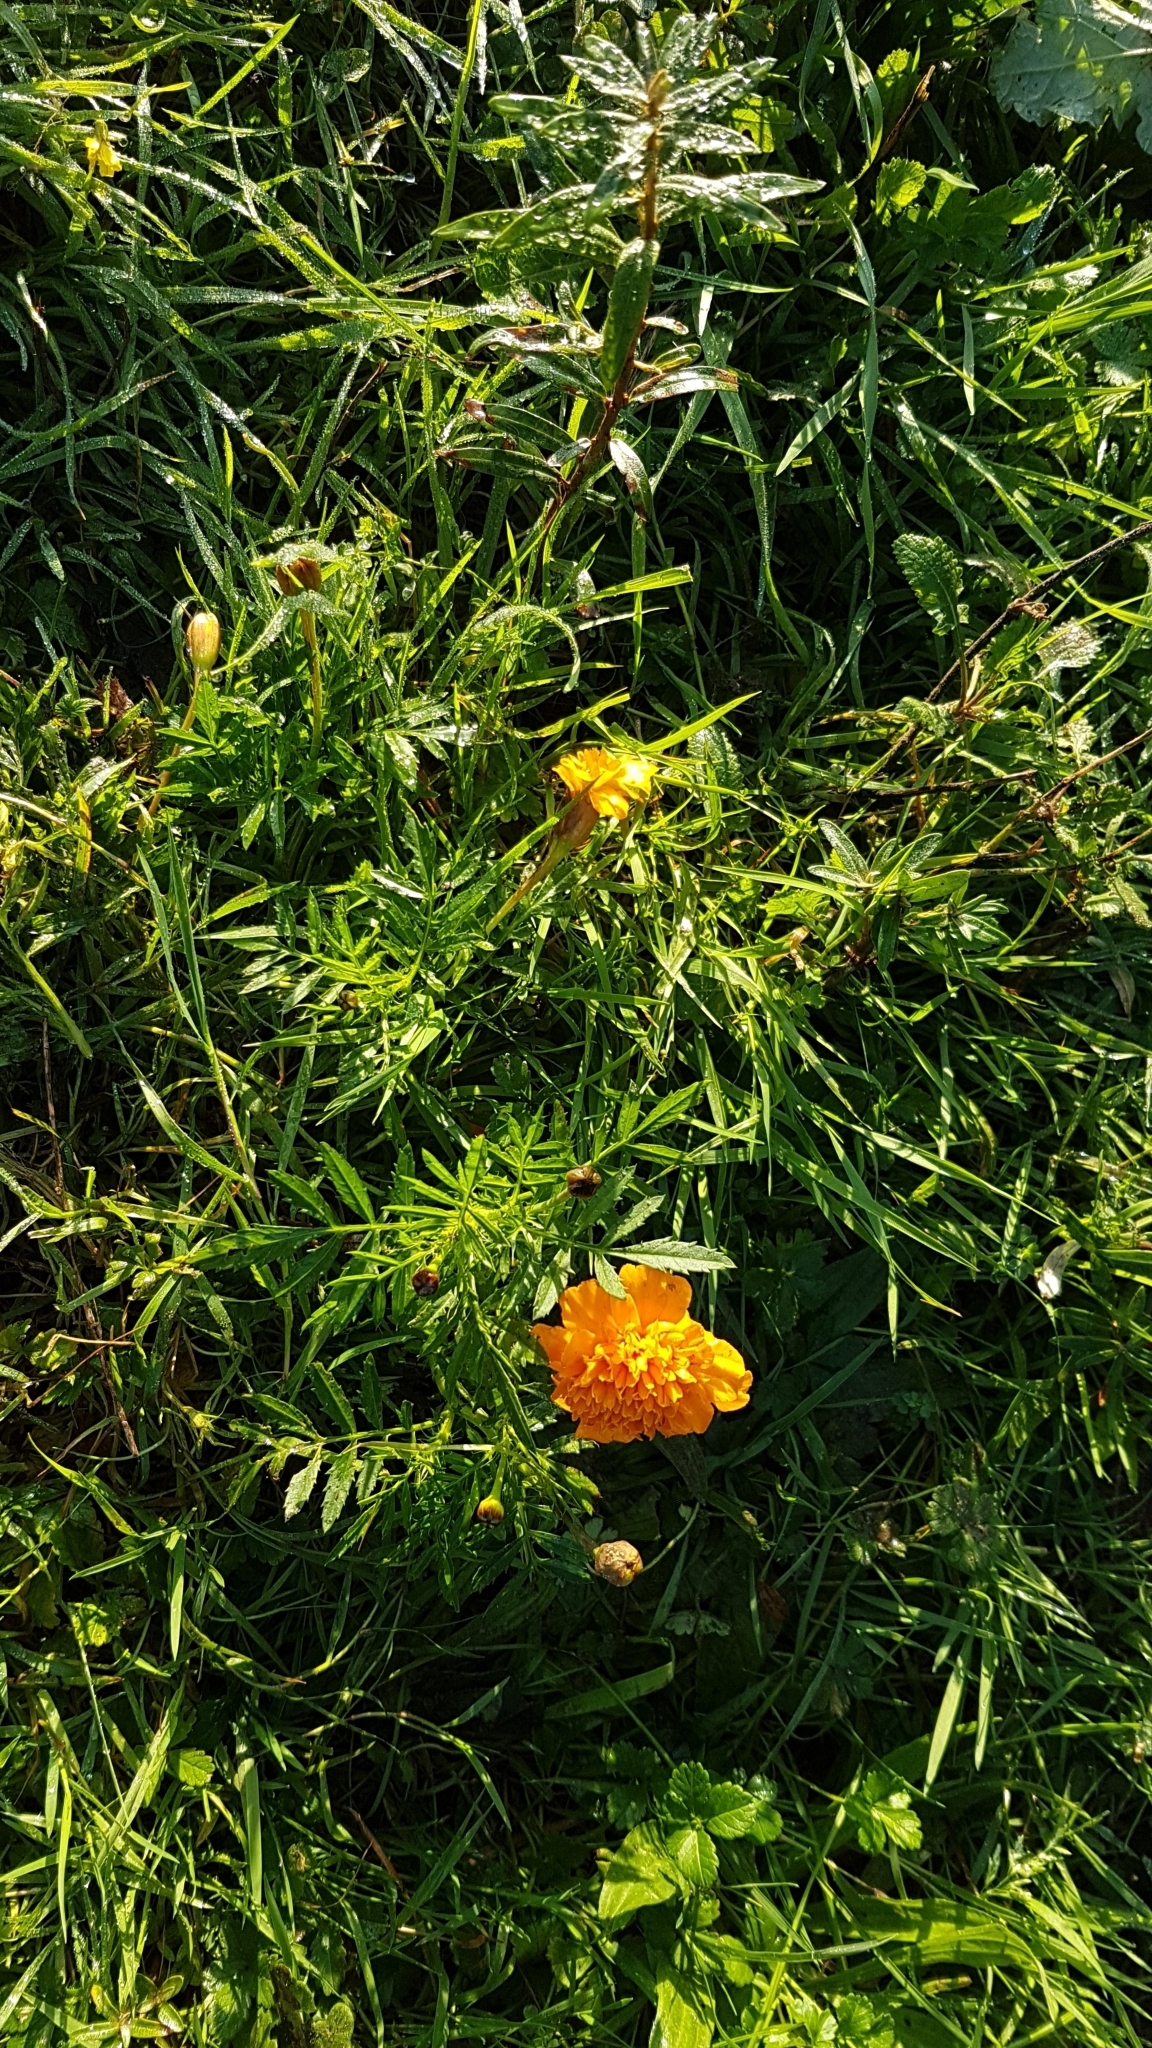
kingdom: Plantae
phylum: Tracheophyta
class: Magnoliopsida
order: Asterales
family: Asteraceae
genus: Tagetes
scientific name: Tagetes erecta
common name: African marigold
